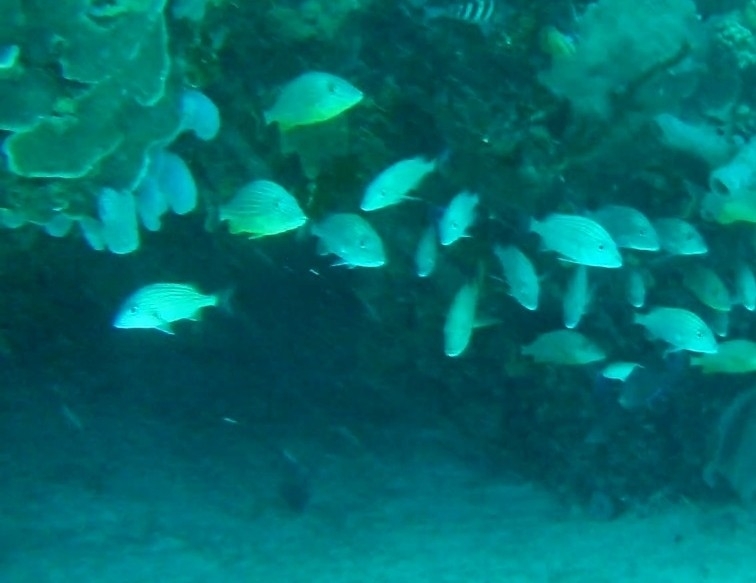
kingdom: Animalia
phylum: Chordata
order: Perciformes
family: Haemulidae
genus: Haemulon
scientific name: Haemulon sciurus
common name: Bluestriped grunt
